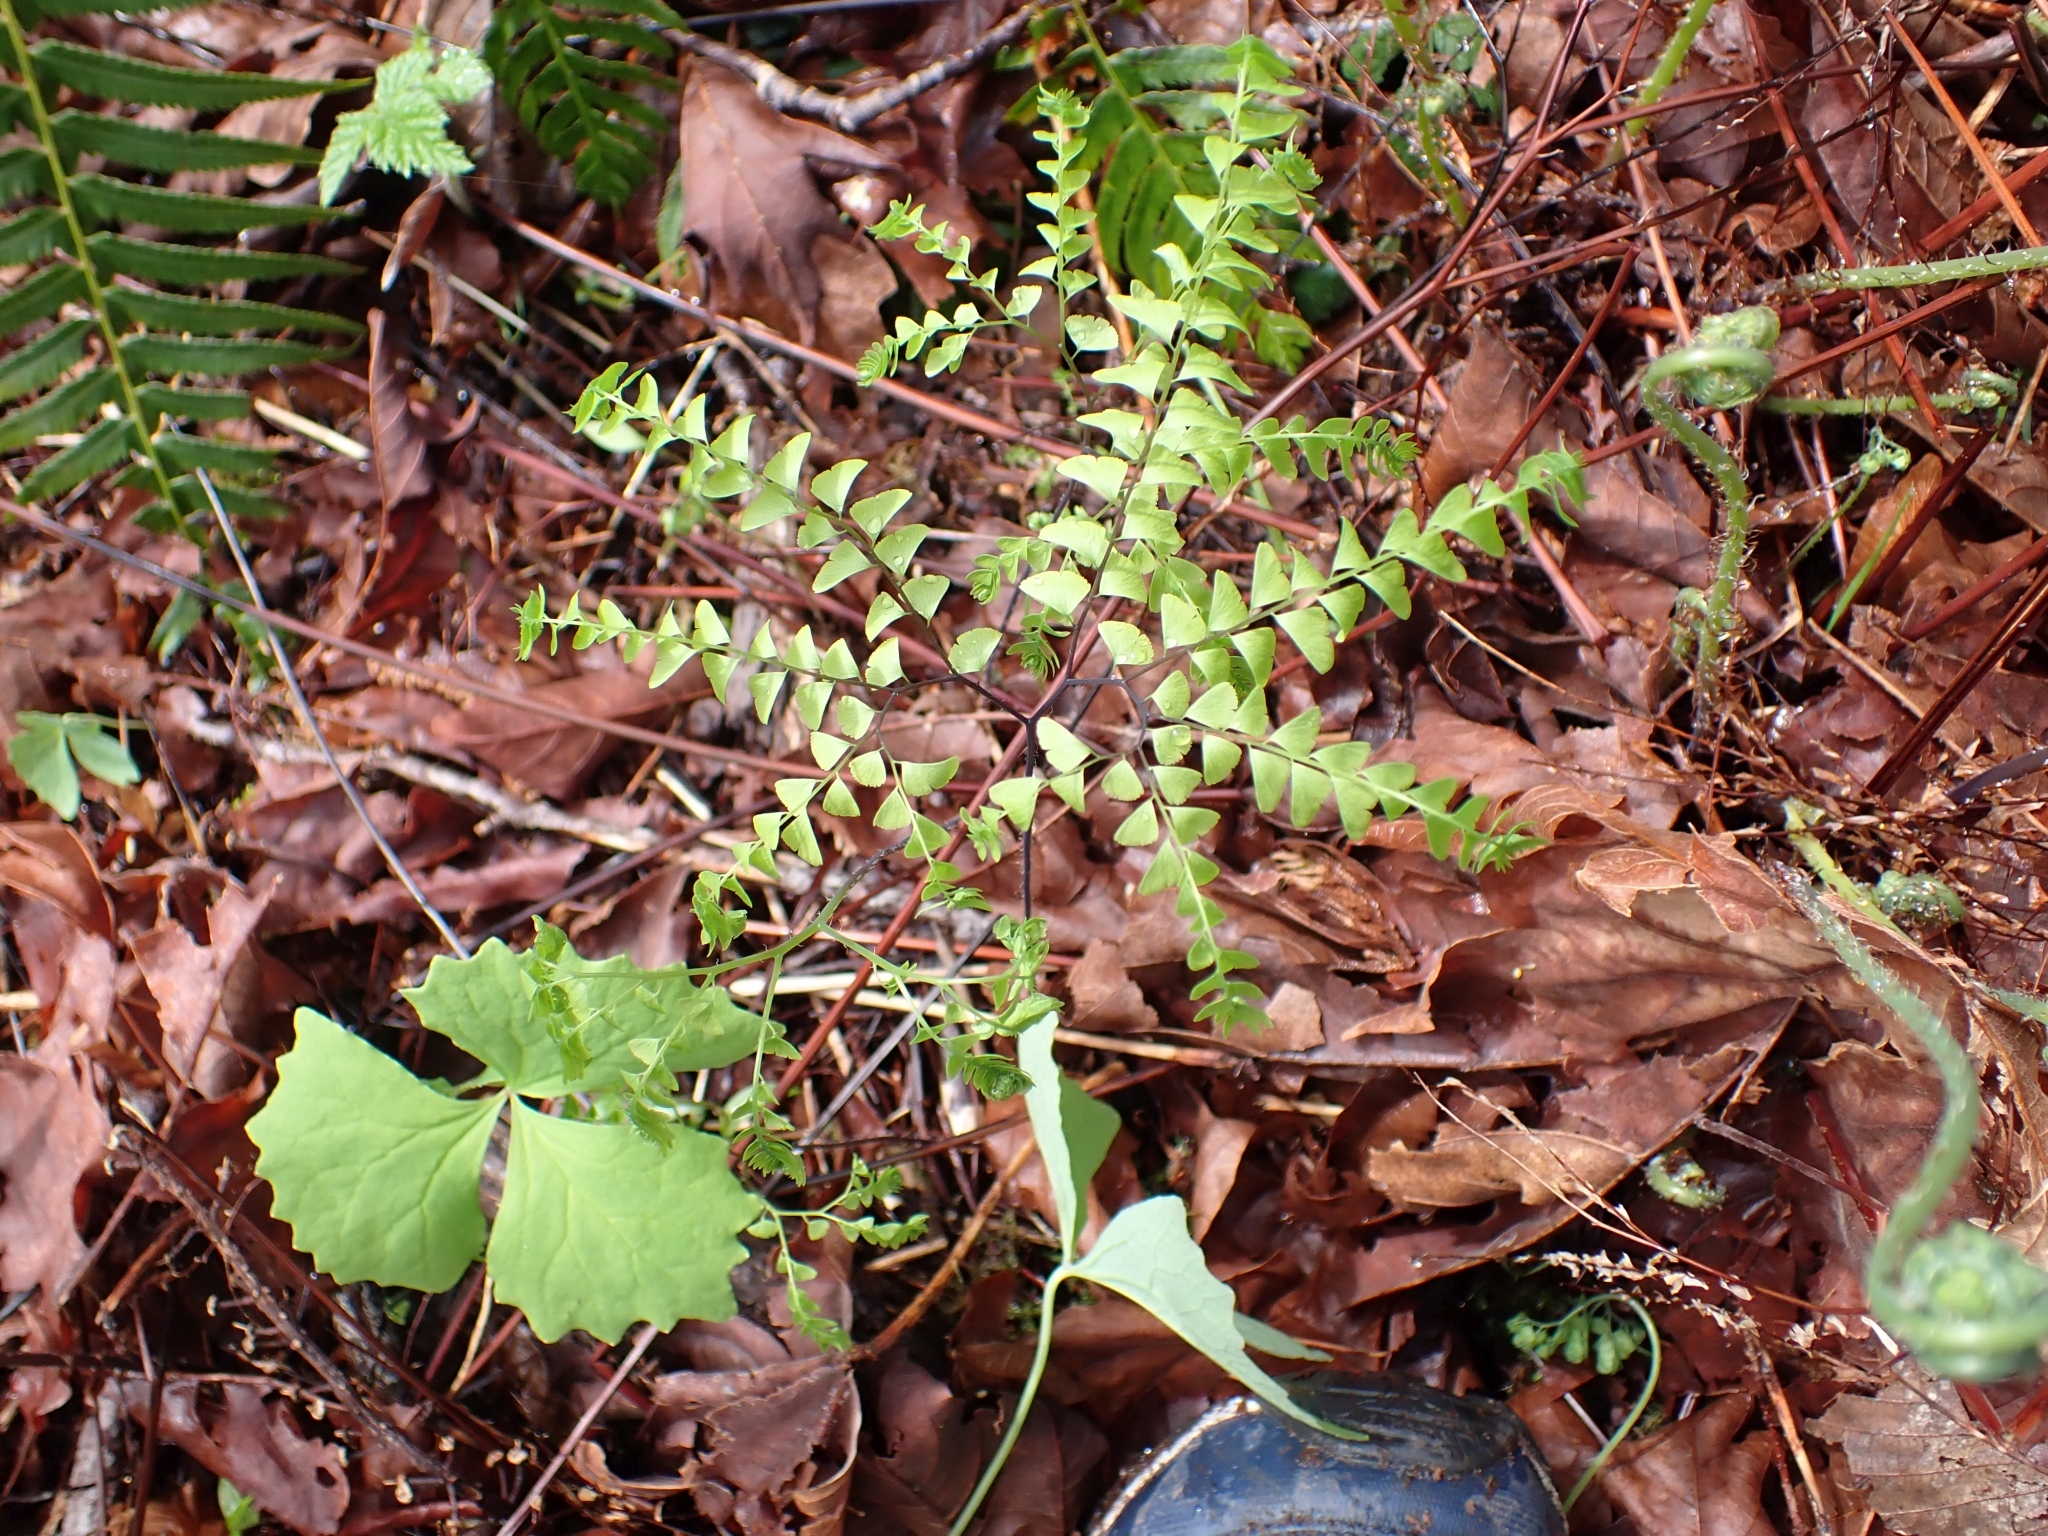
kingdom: Plantae
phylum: Tracheophyta
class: Polypodiopsida
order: Polypodiales
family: Pteridaceae
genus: Adiantum
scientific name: Adiantum aleuticum
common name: Aleutian maidenhair fern
